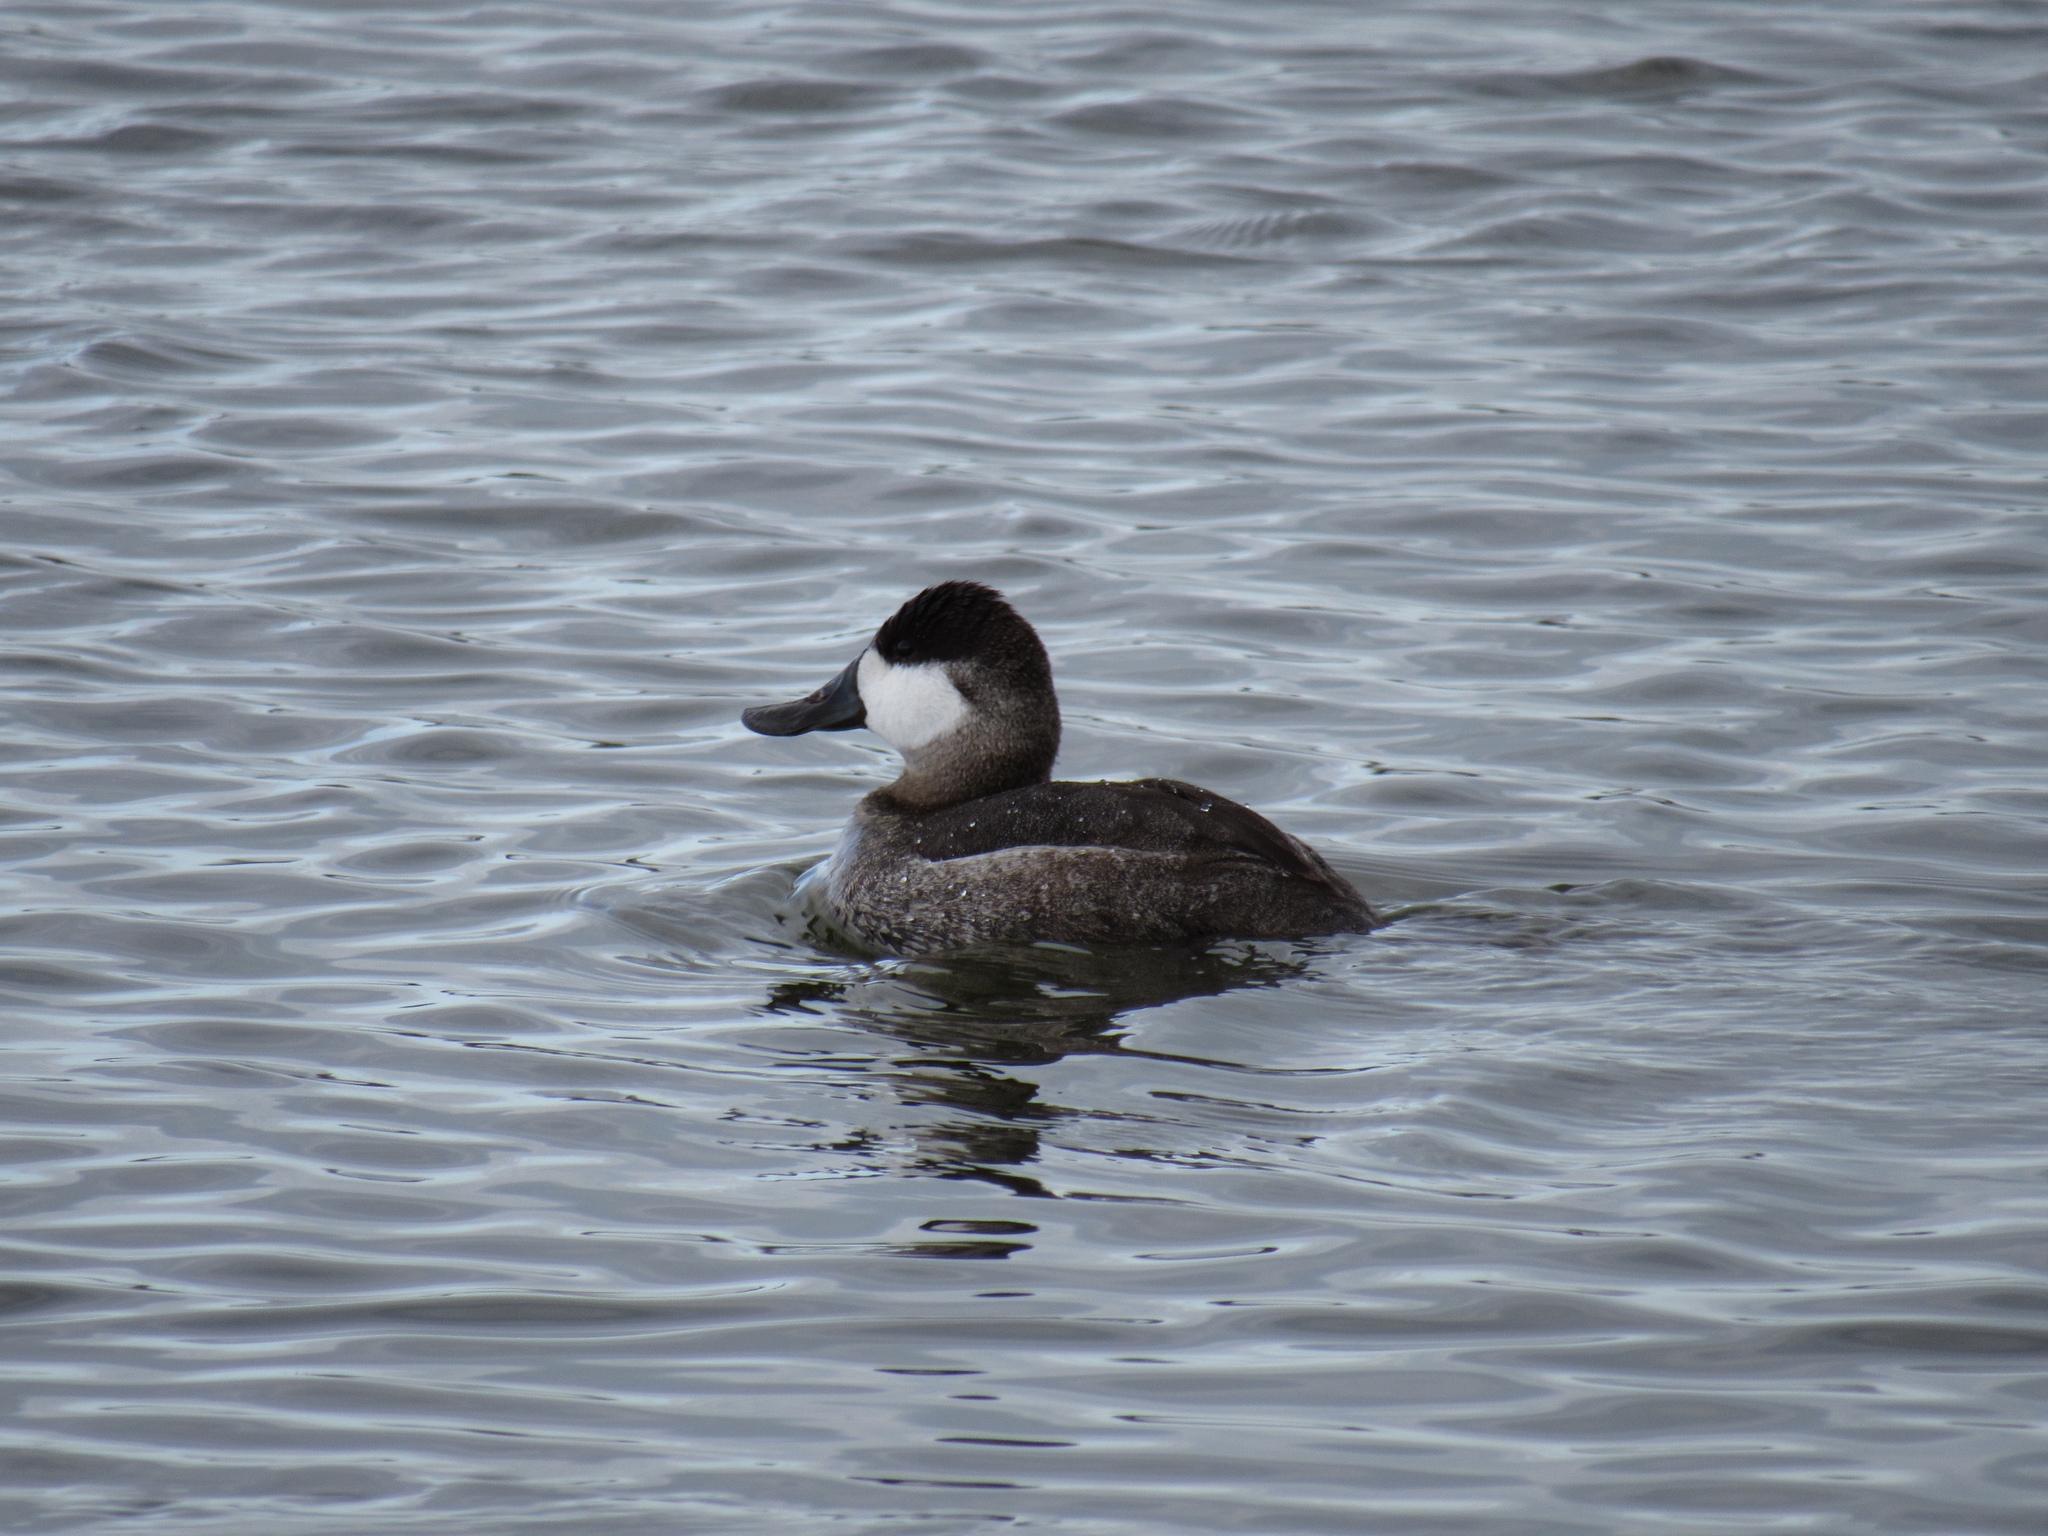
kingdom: Animalia
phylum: Chordata
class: Aves
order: Anseriformes
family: Anatidae
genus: Oxyura
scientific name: Oxyura jamaicensis
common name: Ruddy duck
